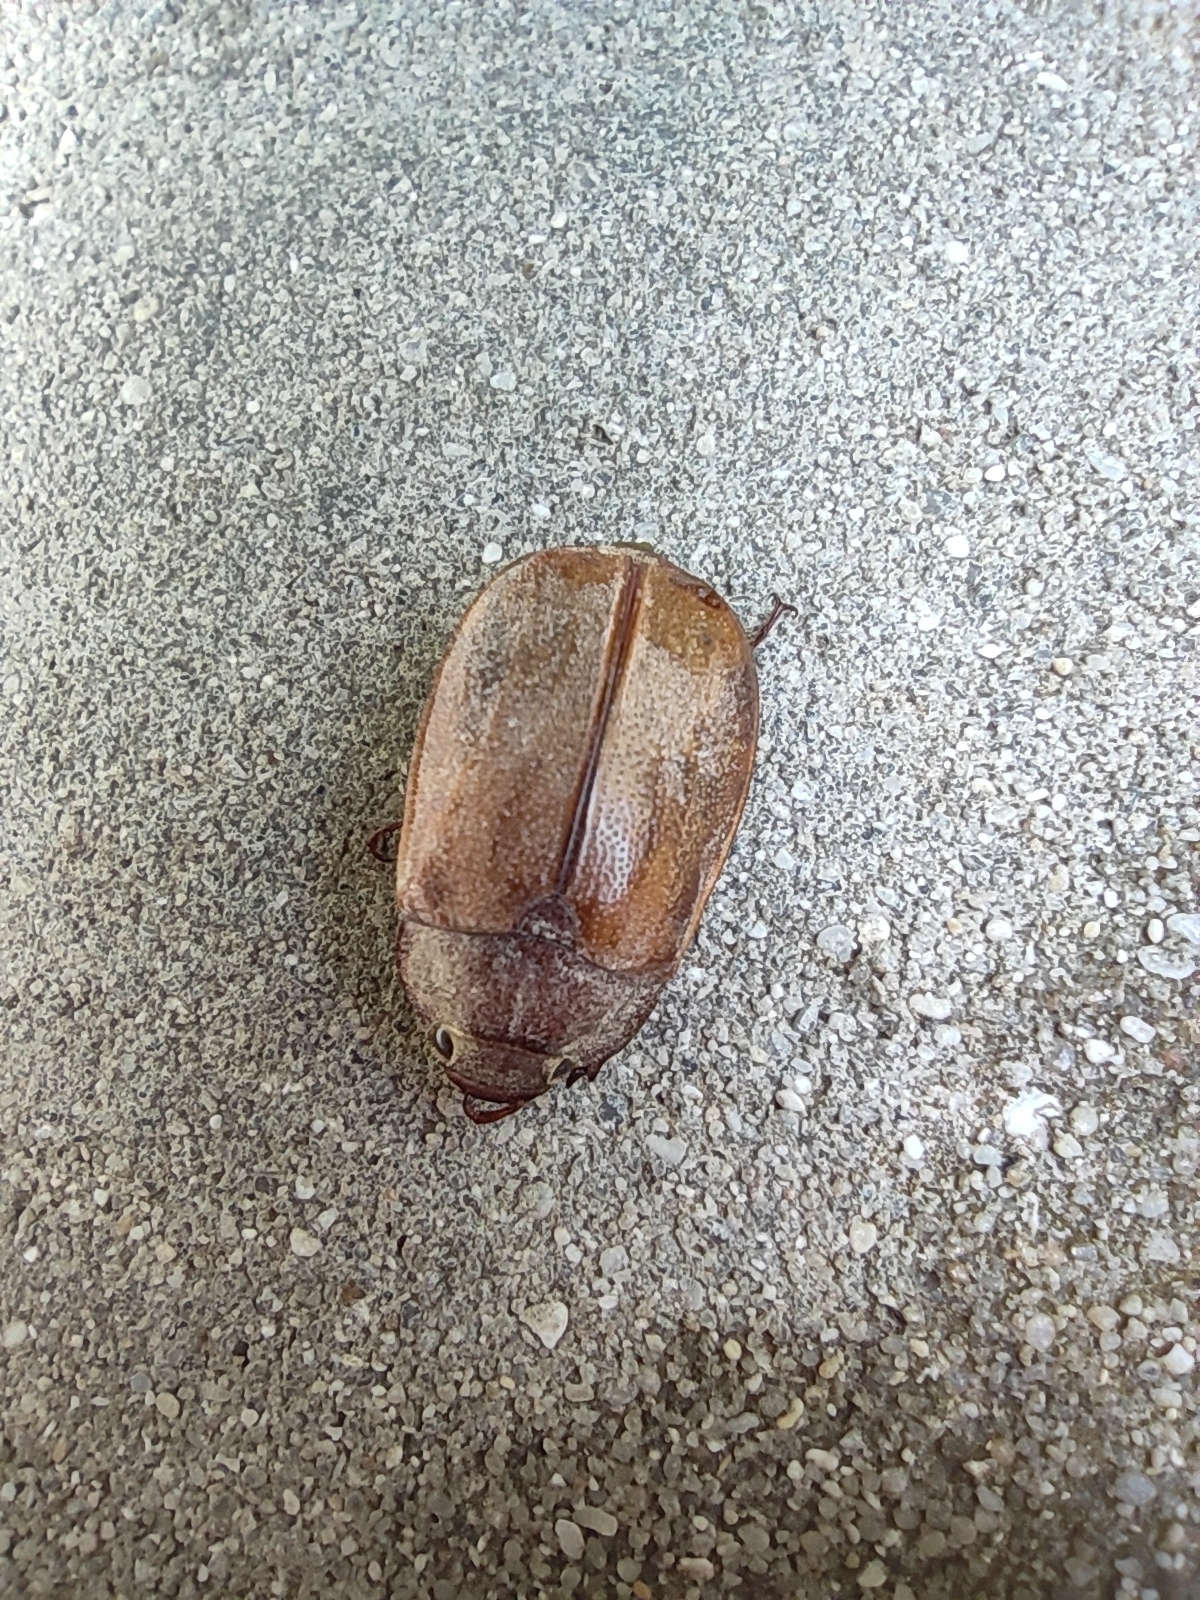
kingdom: Animalia
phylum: Arthropoda
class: Insecta
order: Coleoptera
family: Scarabaeidae
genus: Pegylis
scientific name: Pegylis sommeri
